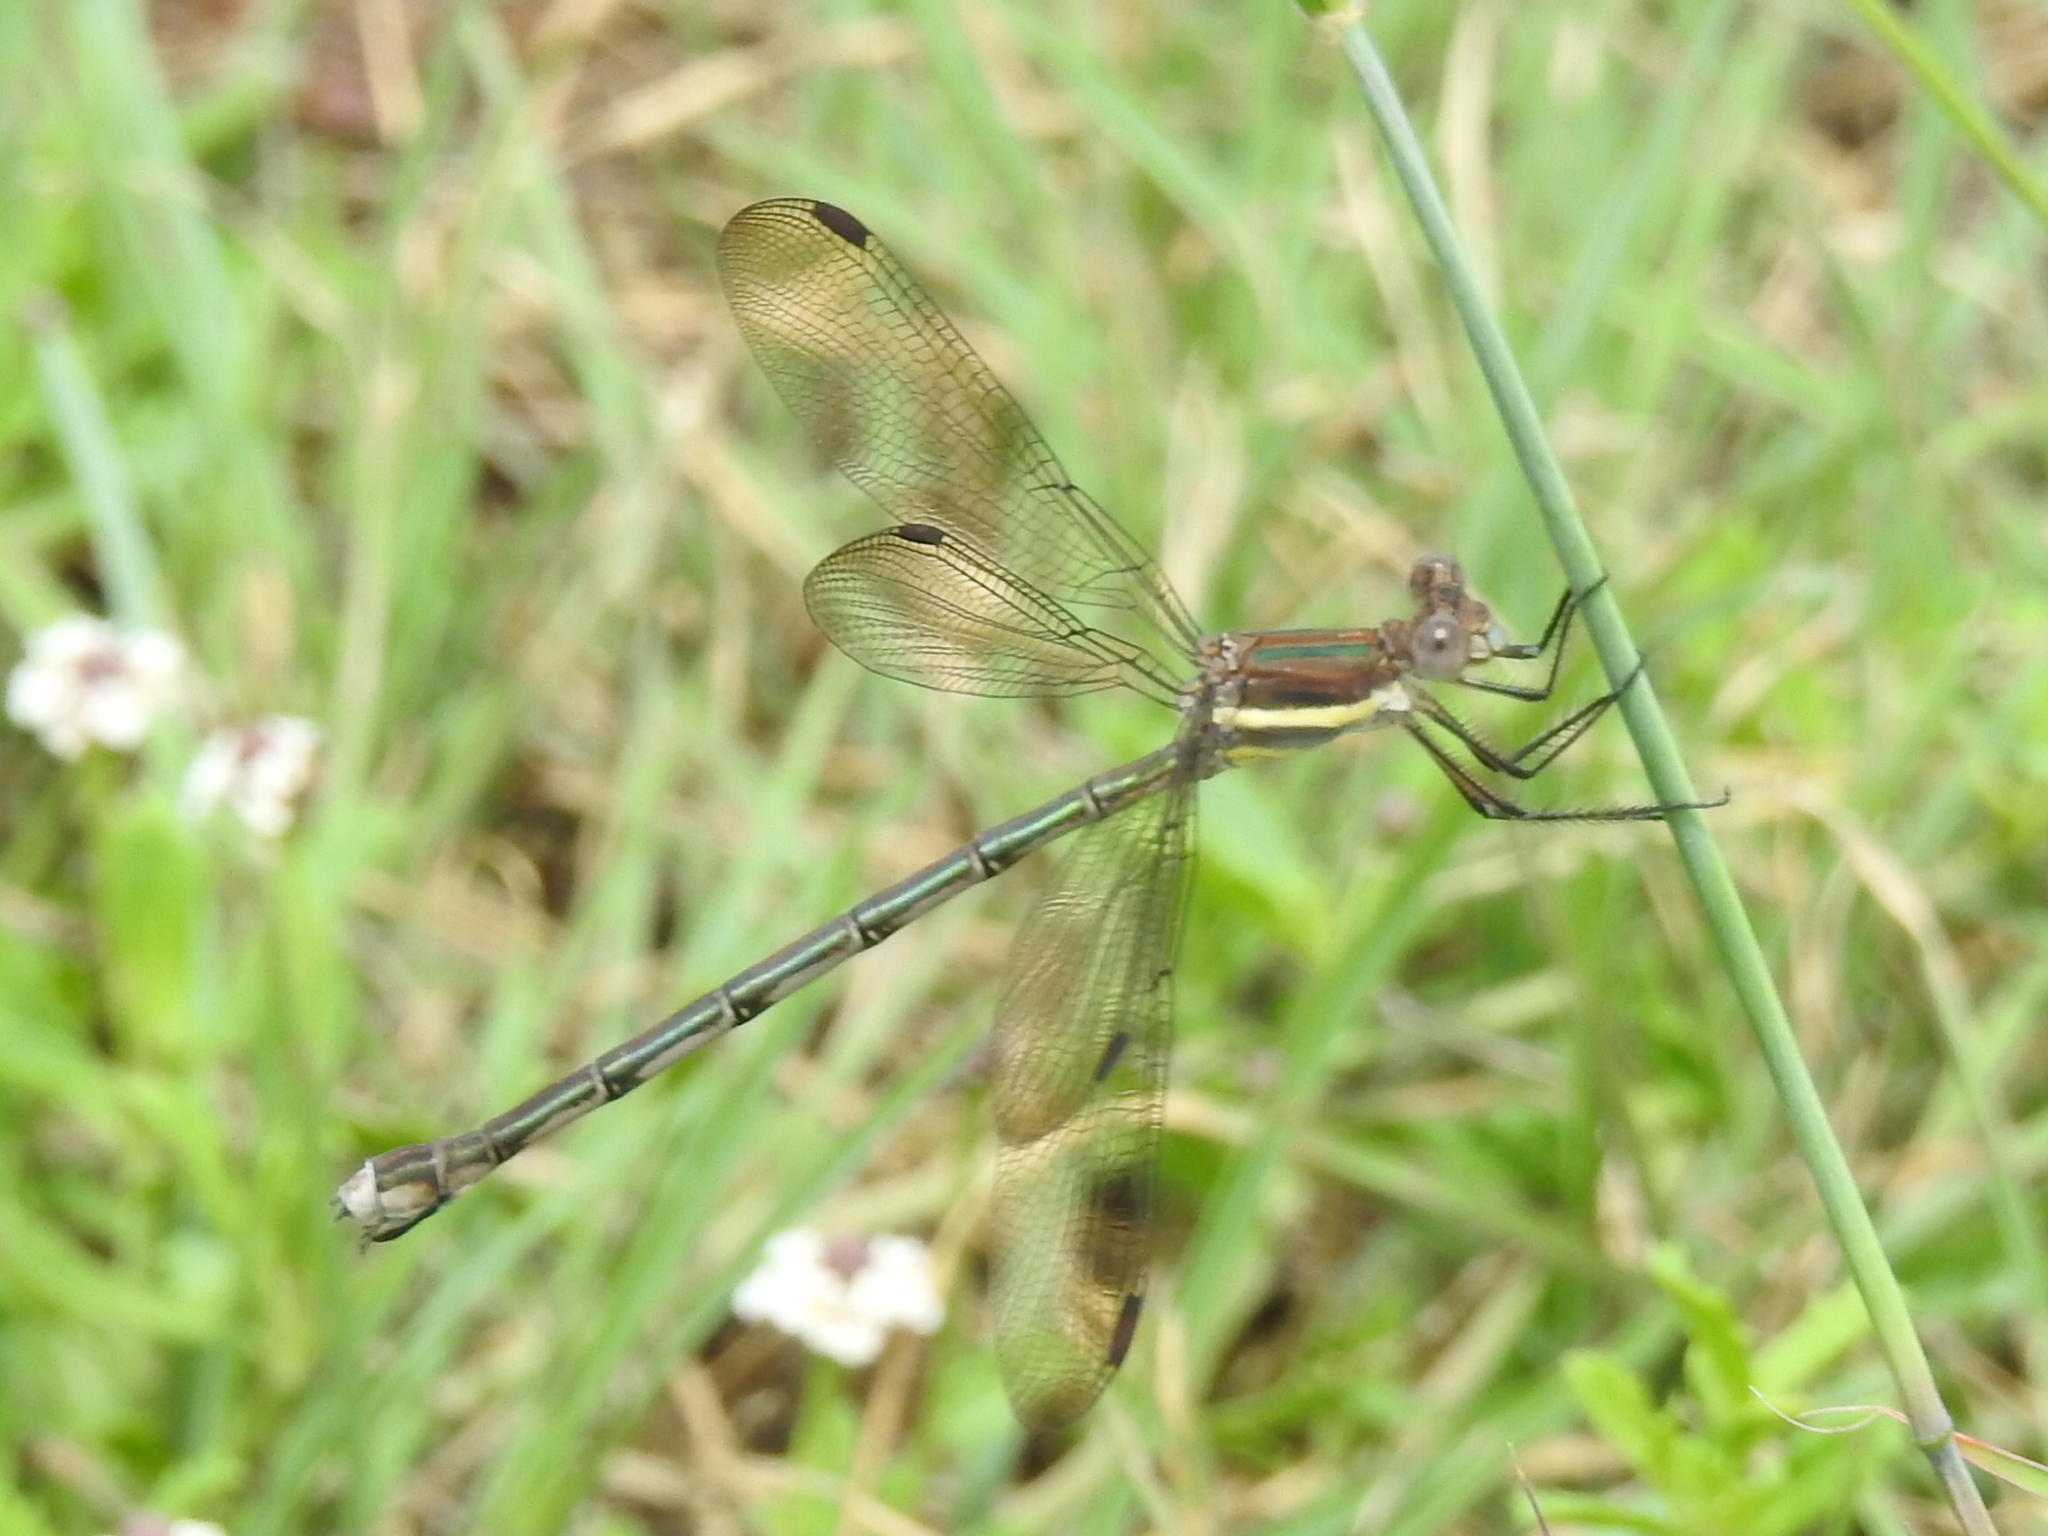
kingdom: Animalia
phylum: Arthropoda
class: Insecta
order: Odonata
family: Lestidae
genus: Archilestes
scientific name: Archilestes grandis
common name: Great spreadwing
